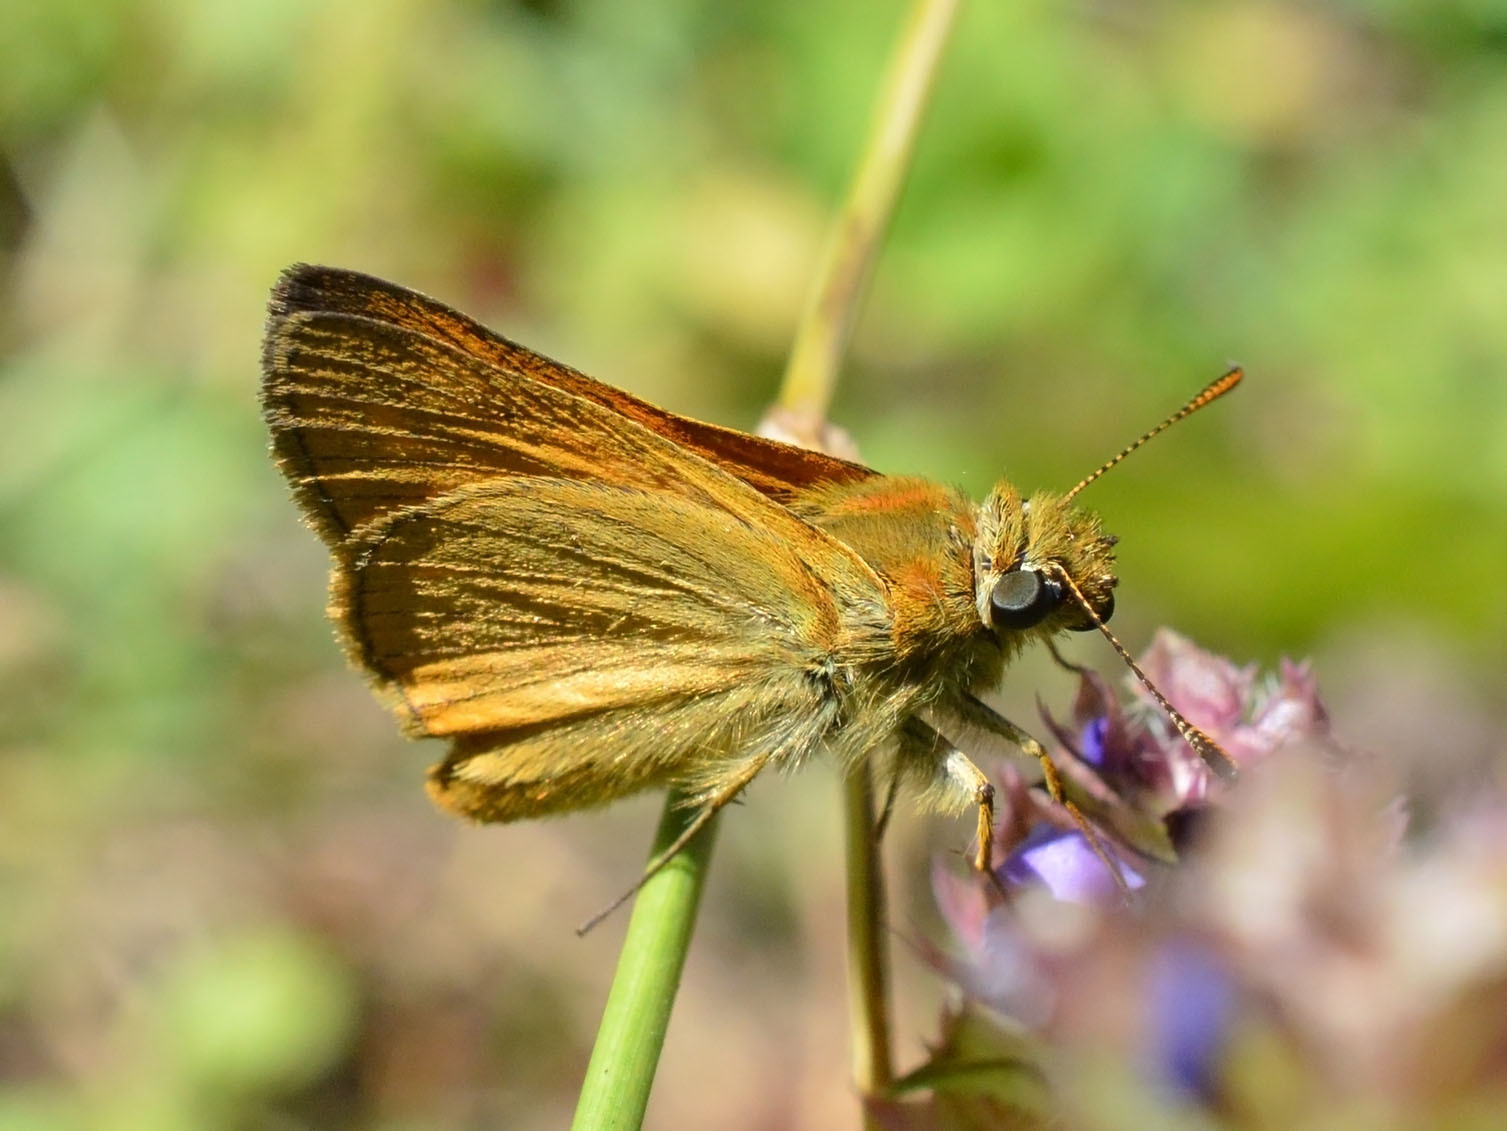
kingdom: Animalia
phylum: Arthropoda
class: Insecta
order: Lepidoptera
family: Hesperiidae
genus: Ochlodes
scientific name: Ochlodes venata
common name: Large skipper
